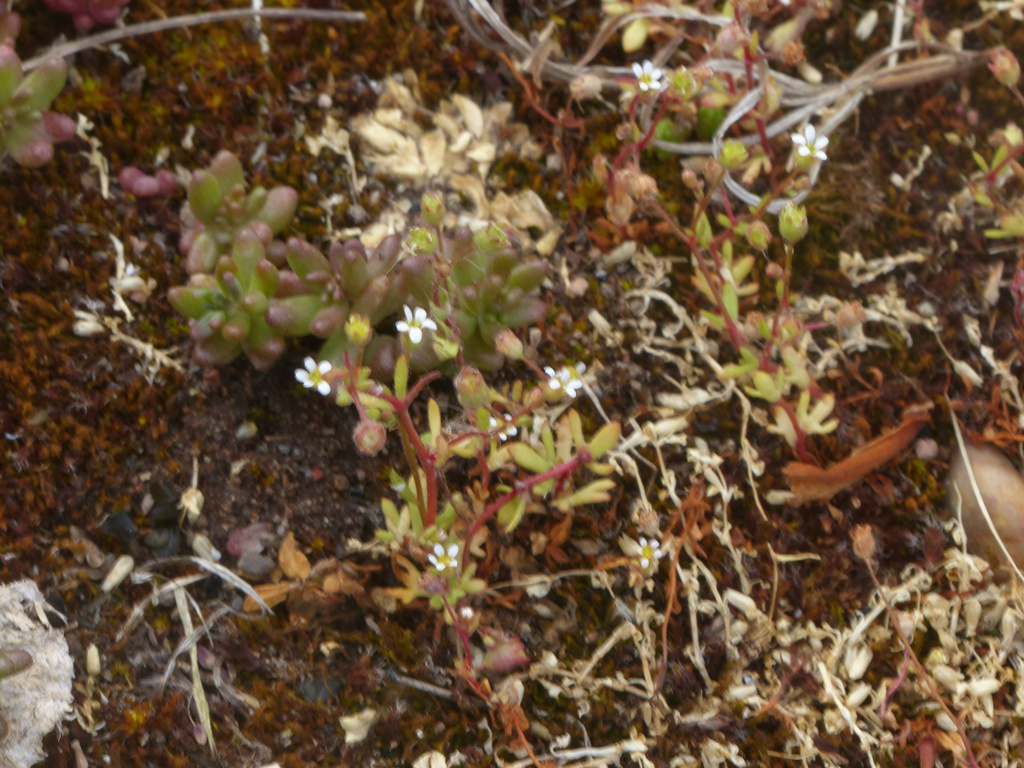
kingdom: Plantae
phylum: Tracheophyta
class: Magnoliopsida
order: Saxifragales
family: Saxifragaceae
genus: Saxifraga
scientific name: Saxifraga tridactylites
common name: Rue-leaved saxifrage
